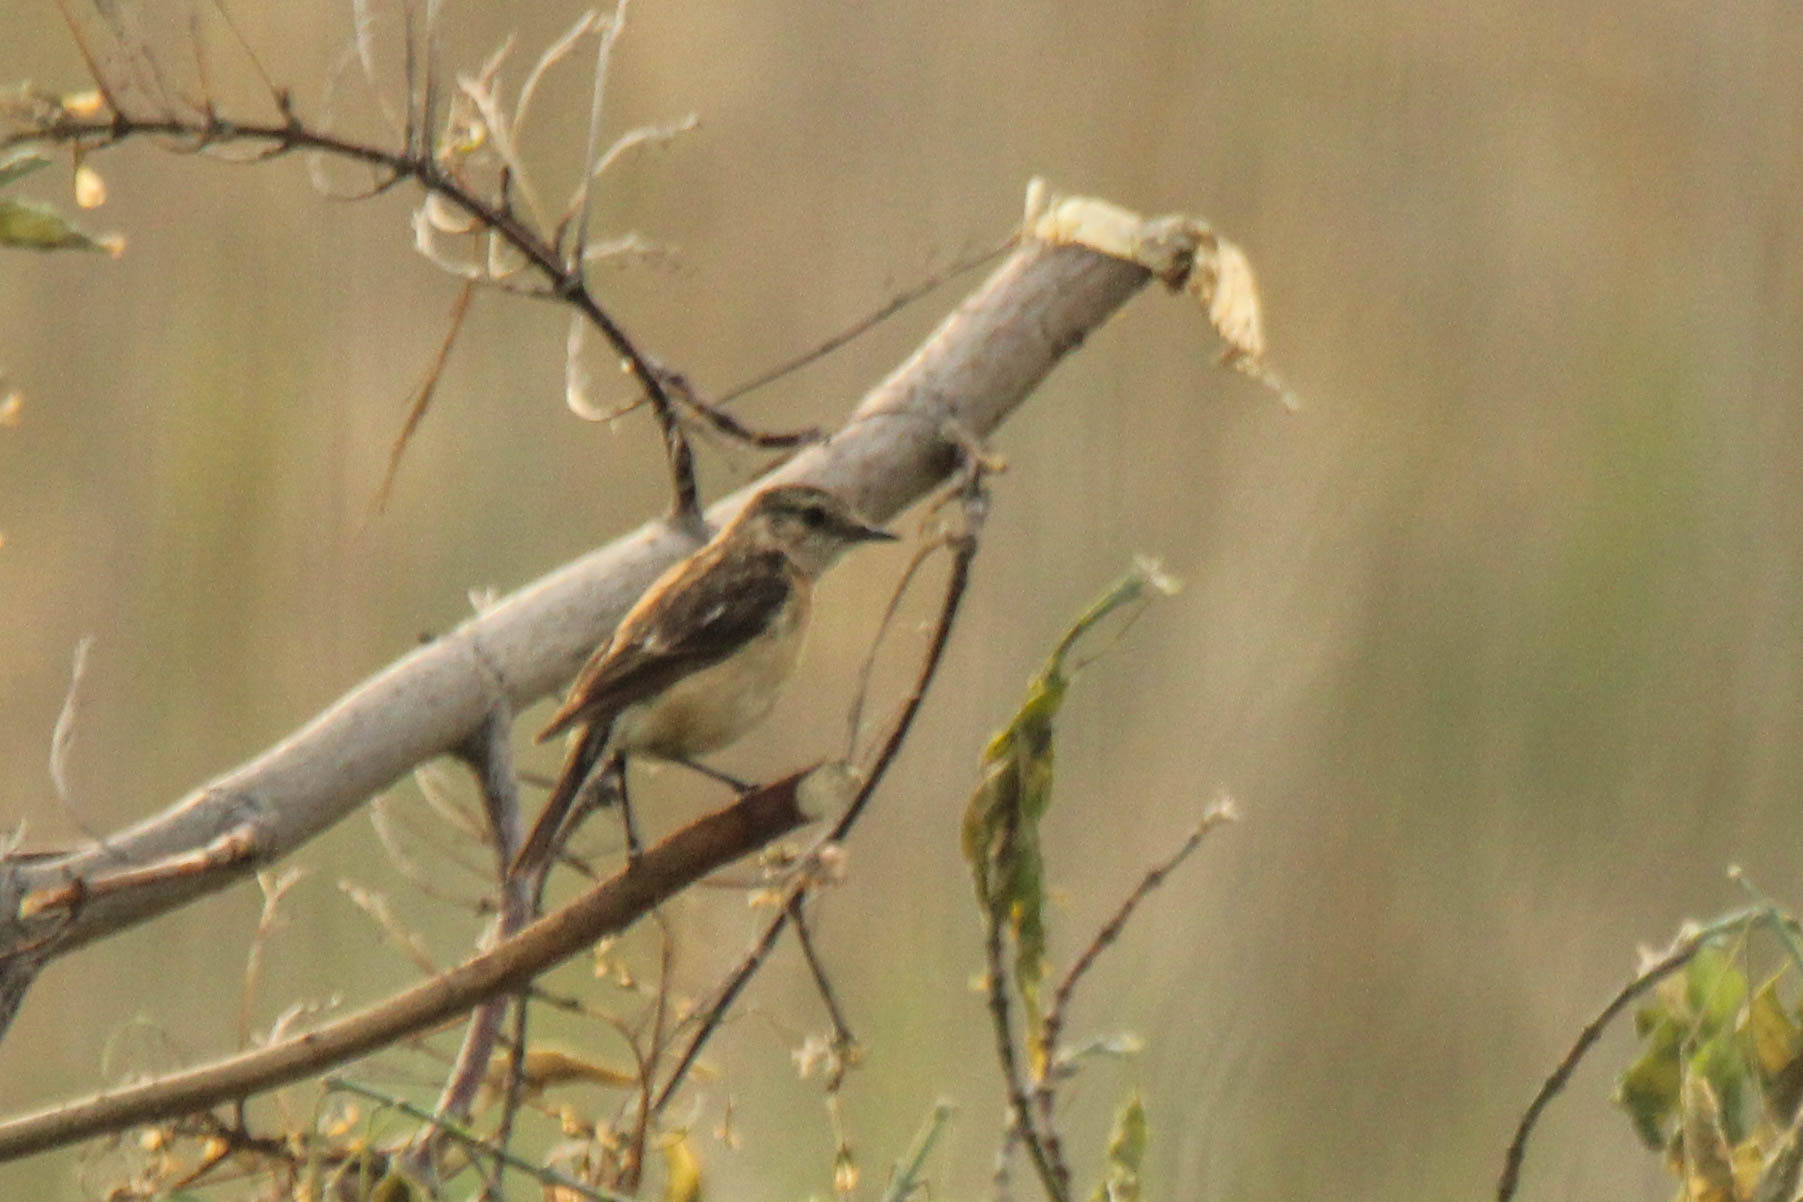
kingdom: Animalia
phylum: Chordata
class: Aves
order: Passeriformes
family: Muscicapidae
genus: Saxicola
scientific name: Saxicola maurus
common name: Siberian stonechat
